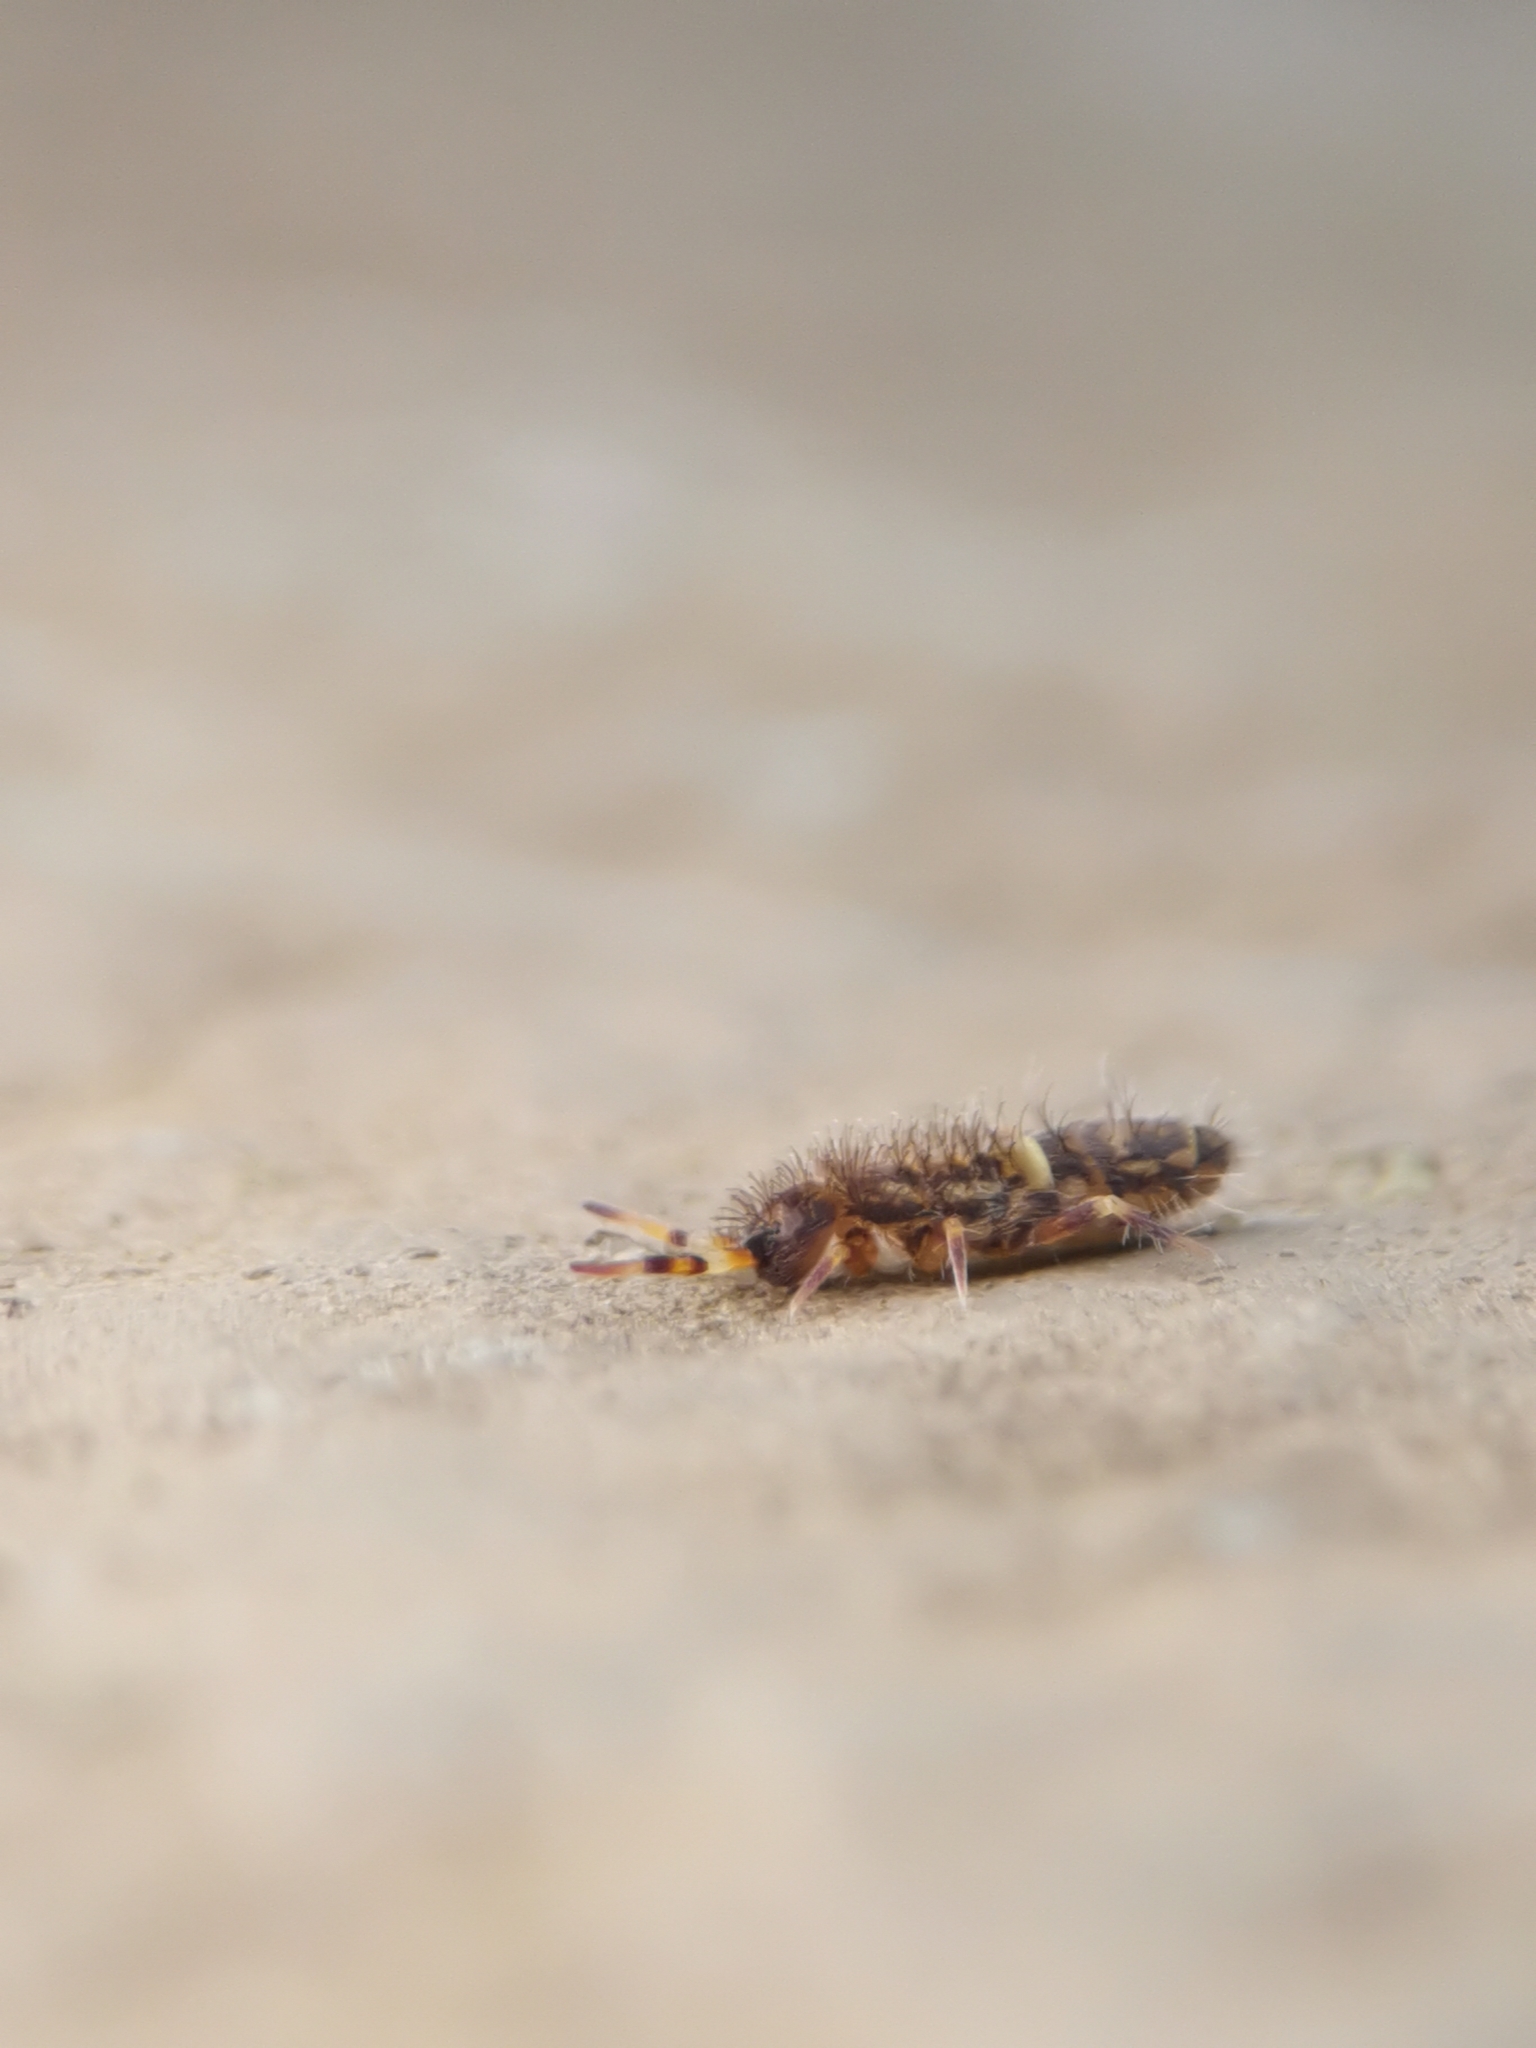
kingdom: Animalia
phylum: Arthropoda
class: Collembola
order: Entomobryomorpha
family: Orchesellidae
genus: Orchesella
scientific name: Orchesella cincta
